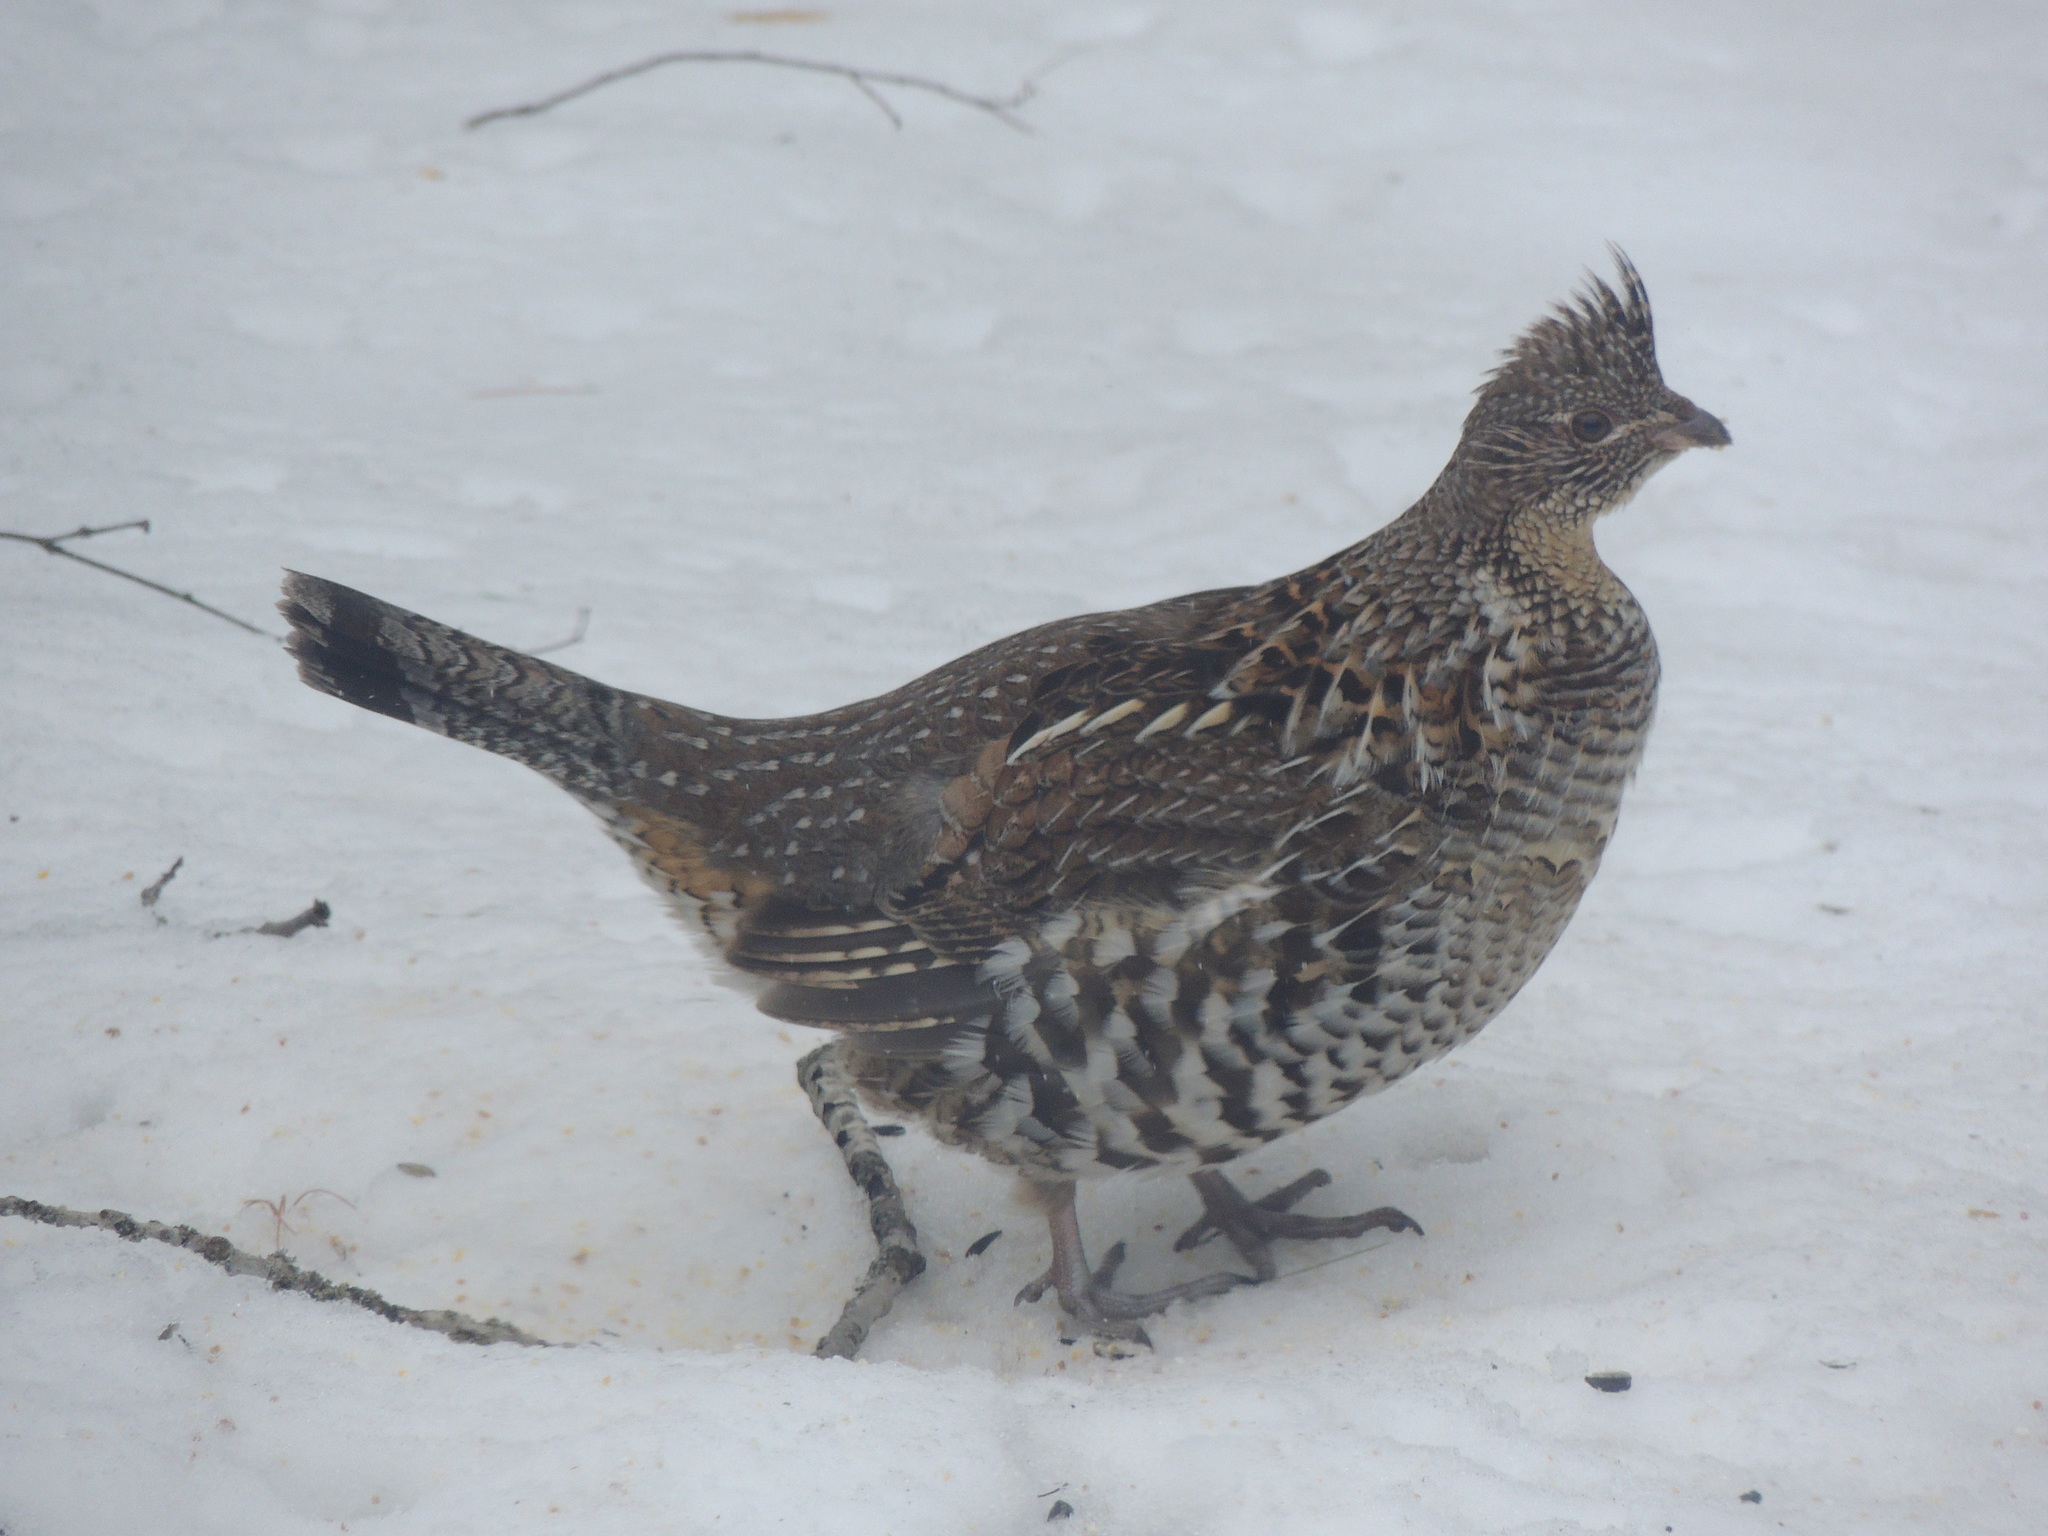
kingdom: Animalia
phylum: Chordata
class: Aves
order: Galliformes
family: Phasianidae
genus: Bonasa
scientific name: Bonasa umbellus
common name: Ruffed grouse
